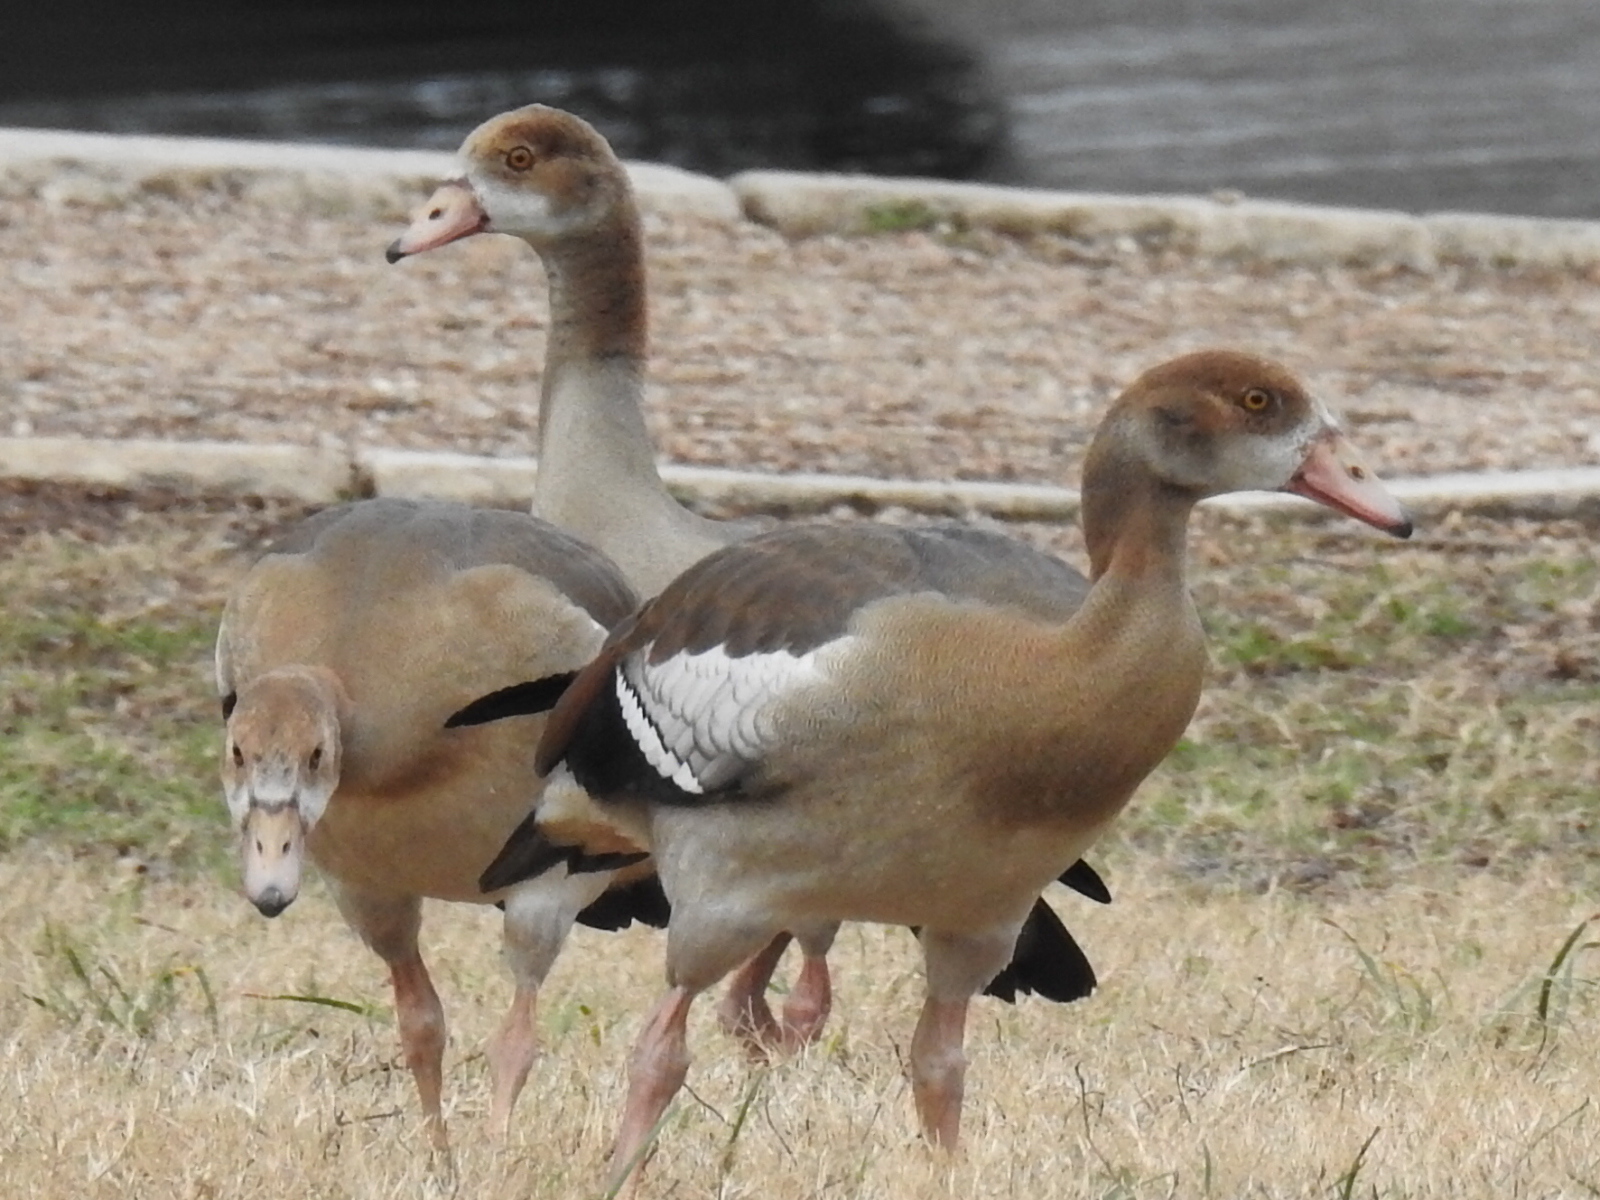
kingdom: Animalia
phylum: Chordata
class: Aves
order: Anseriformes
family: Anatidae
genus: Alopochen
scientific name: Alopochen aegyptiaca
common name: Egyptian goose
